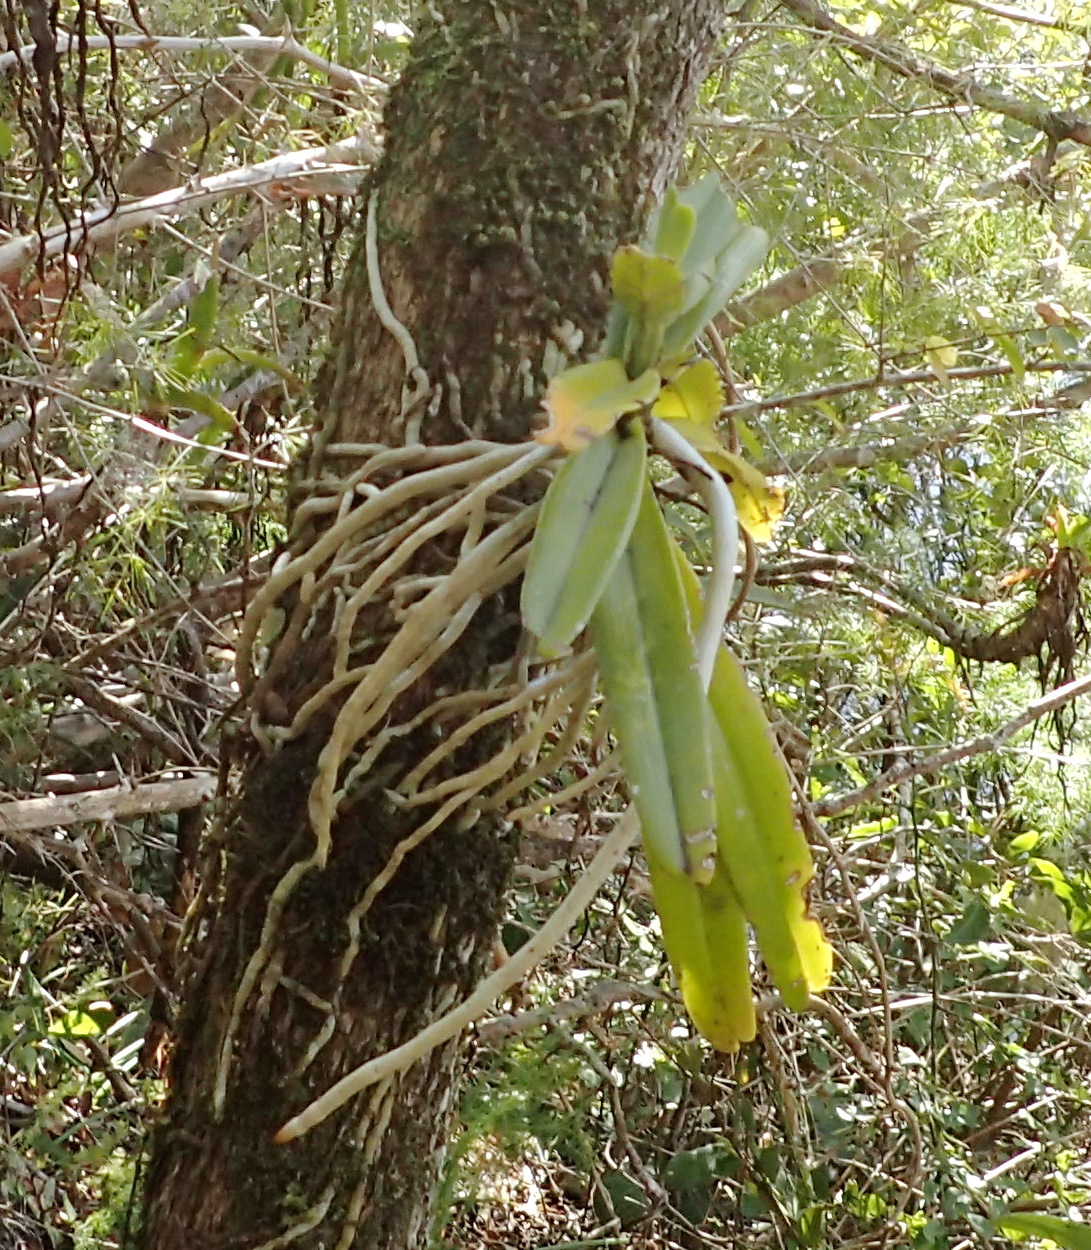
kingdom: Plantae
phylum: Tracheophyta
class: Liliopsida
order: Asparagales
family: Orchidaceae
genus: Cyrtorchis
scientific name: Cyrtorchis arcuata
